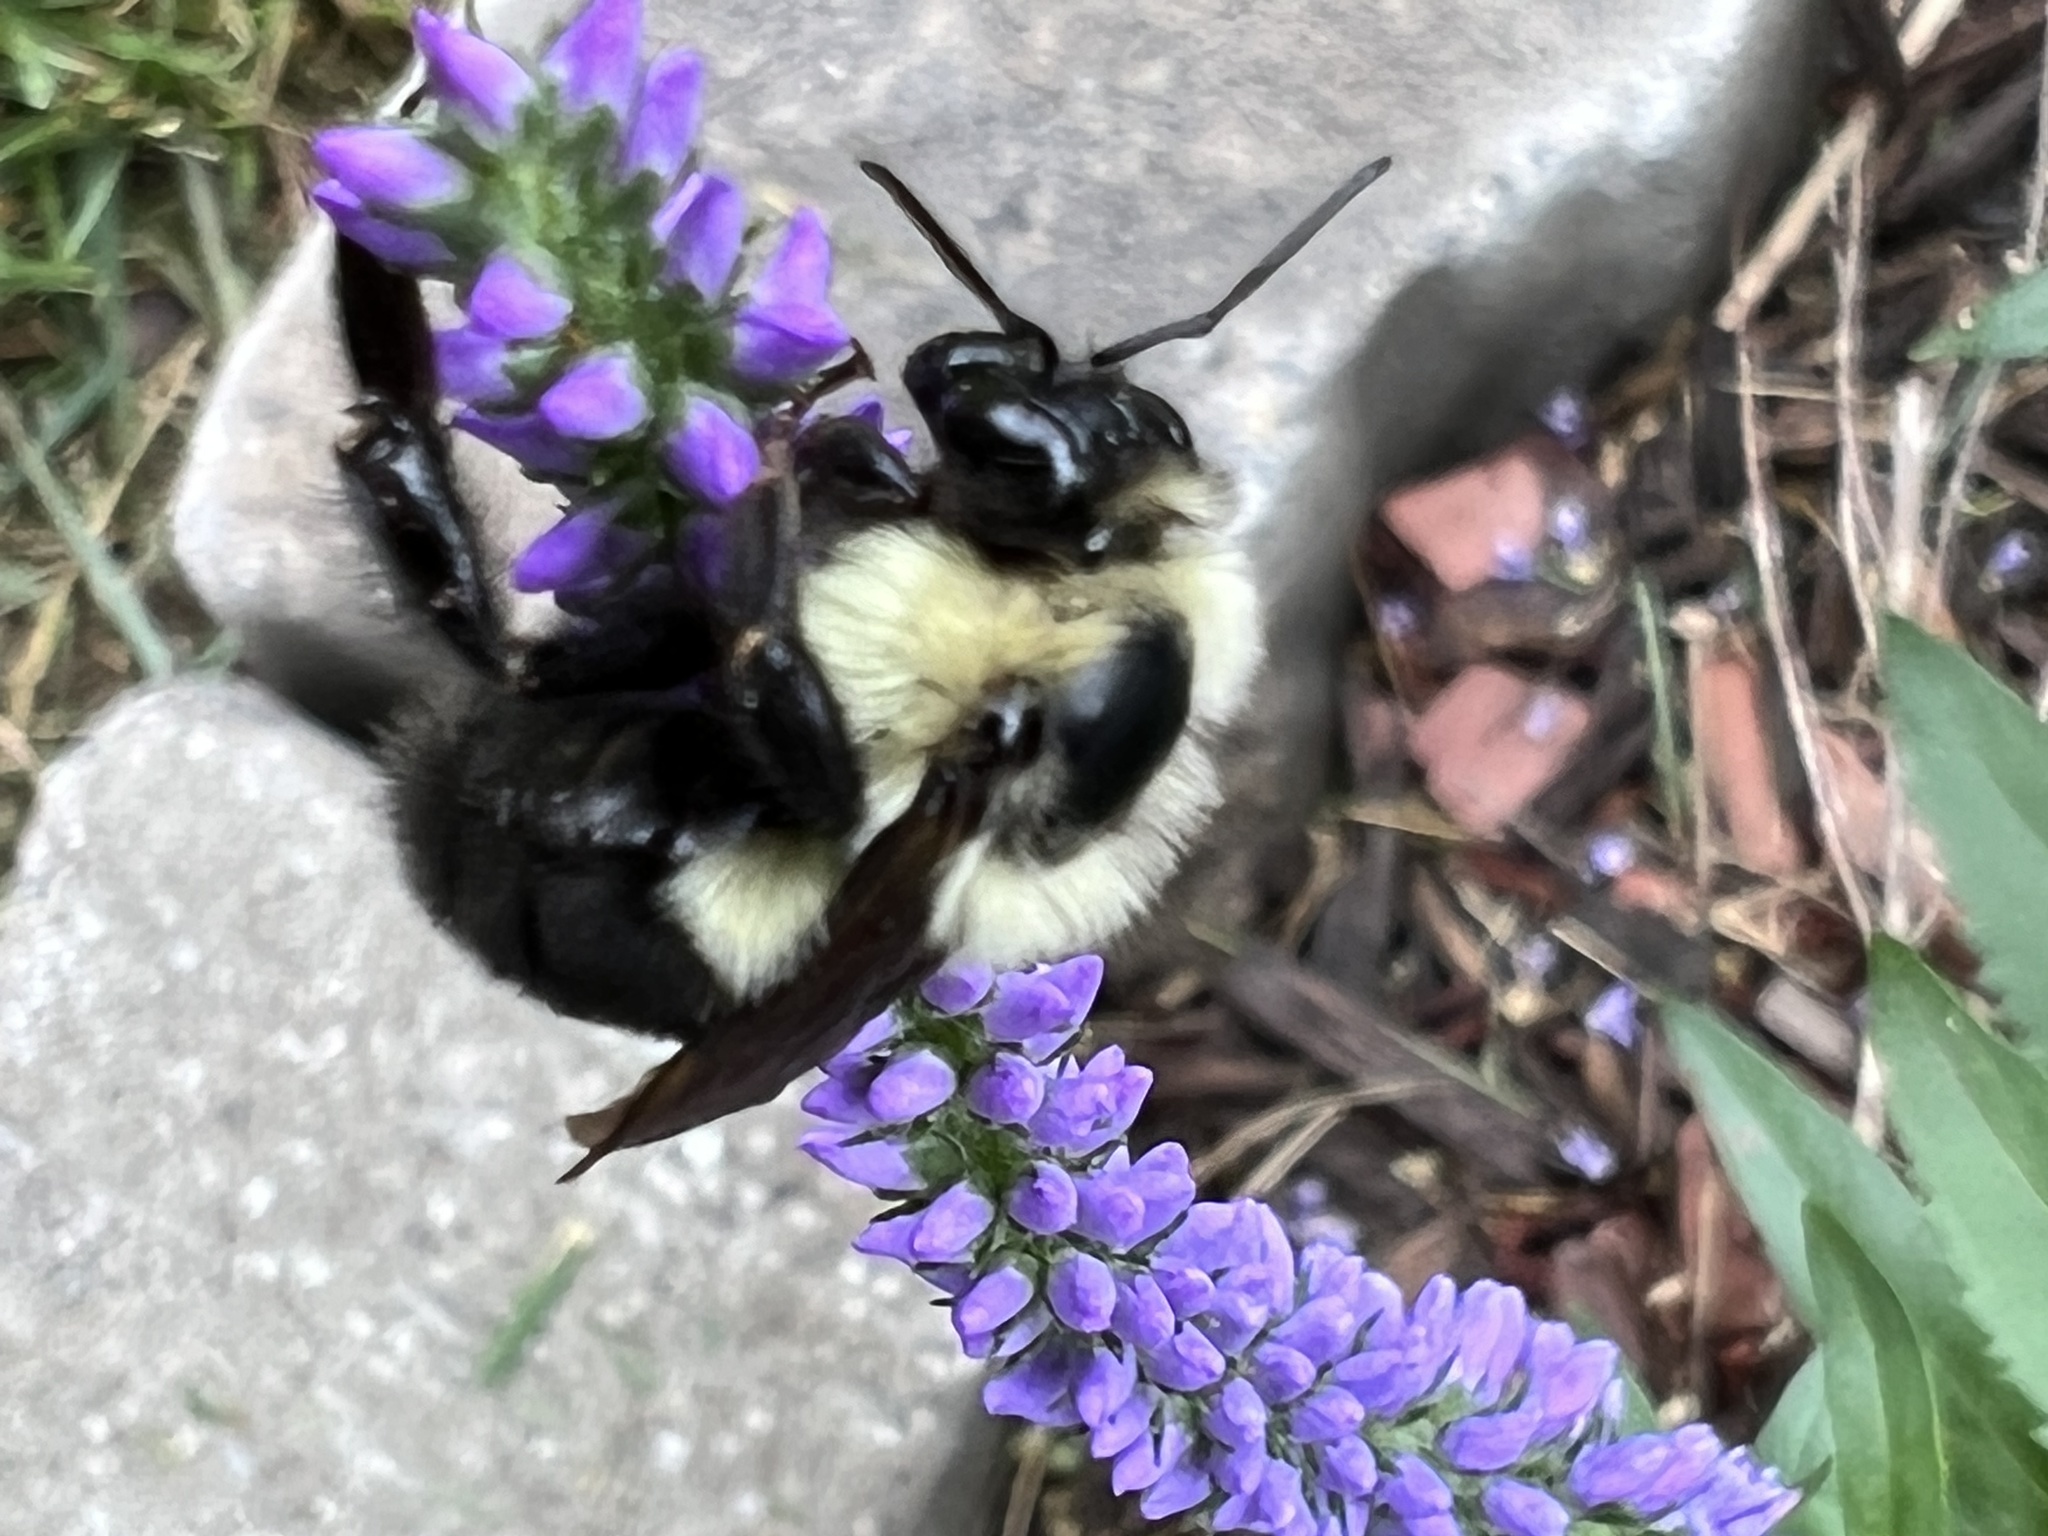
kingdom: Animalia
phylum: Arthropoda
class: Insecta
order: Hymenoptera
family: Apidae
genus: Bombus
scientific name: Bombus bimaculatus
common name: Two-spotted bumble bee
